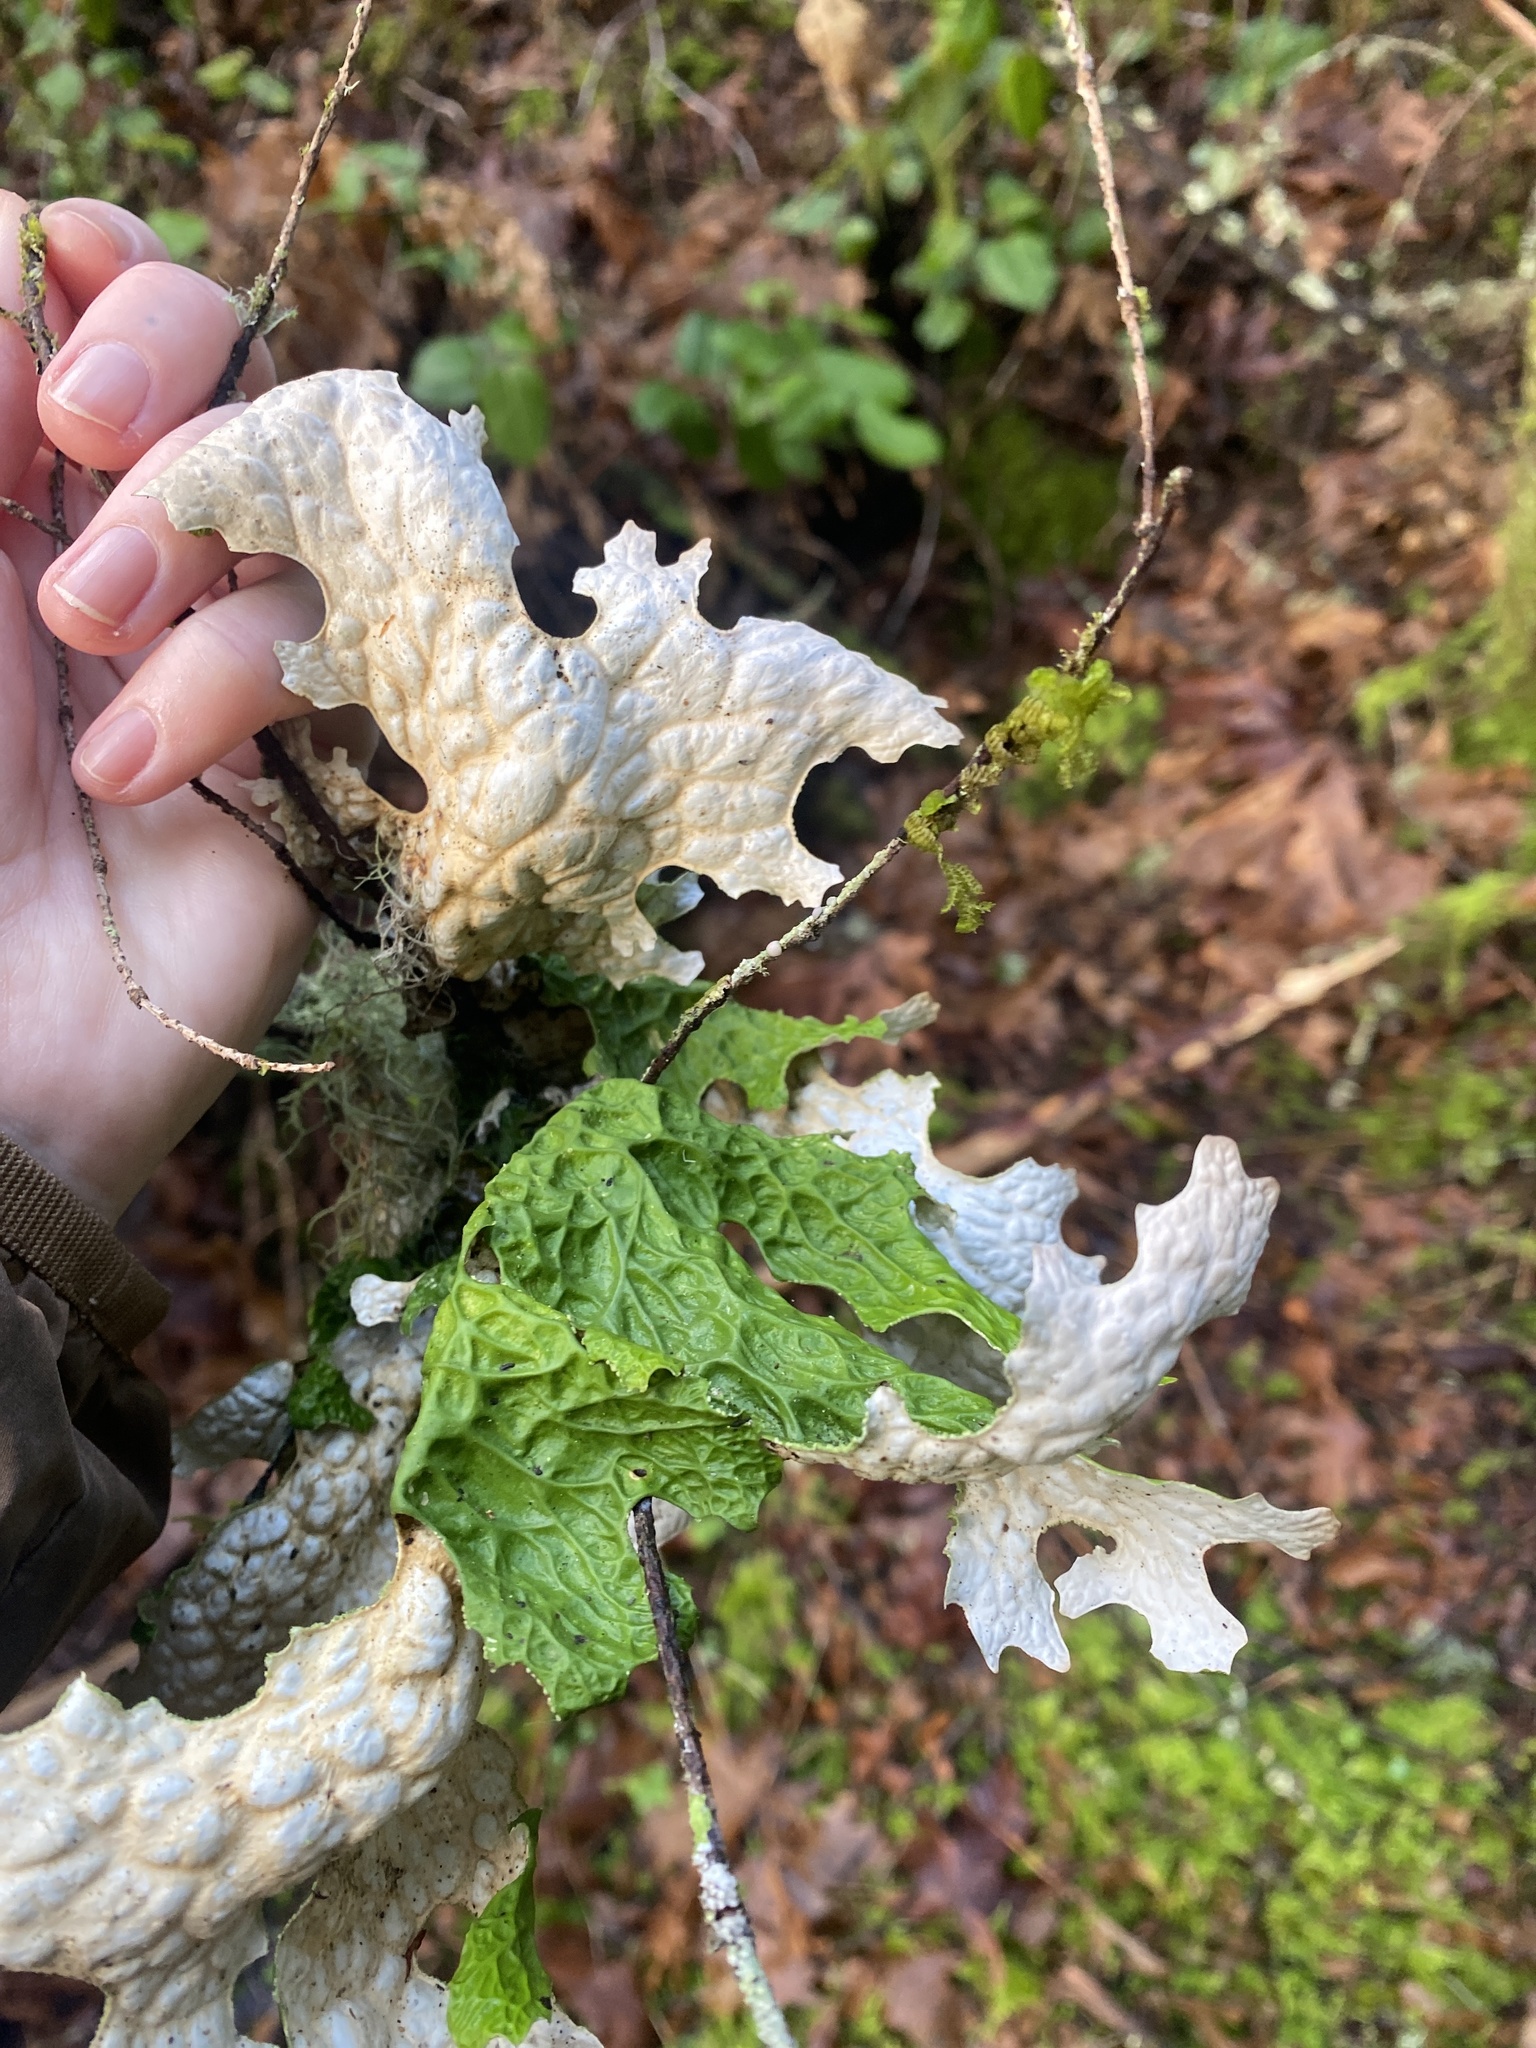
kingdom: Fungi
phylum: Ascomycota
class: Lecanoromycetes
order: Peltigerales
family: Lobariaceae
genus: Lobaria
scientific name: Lobaria pulmonaria
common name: Lungwort
